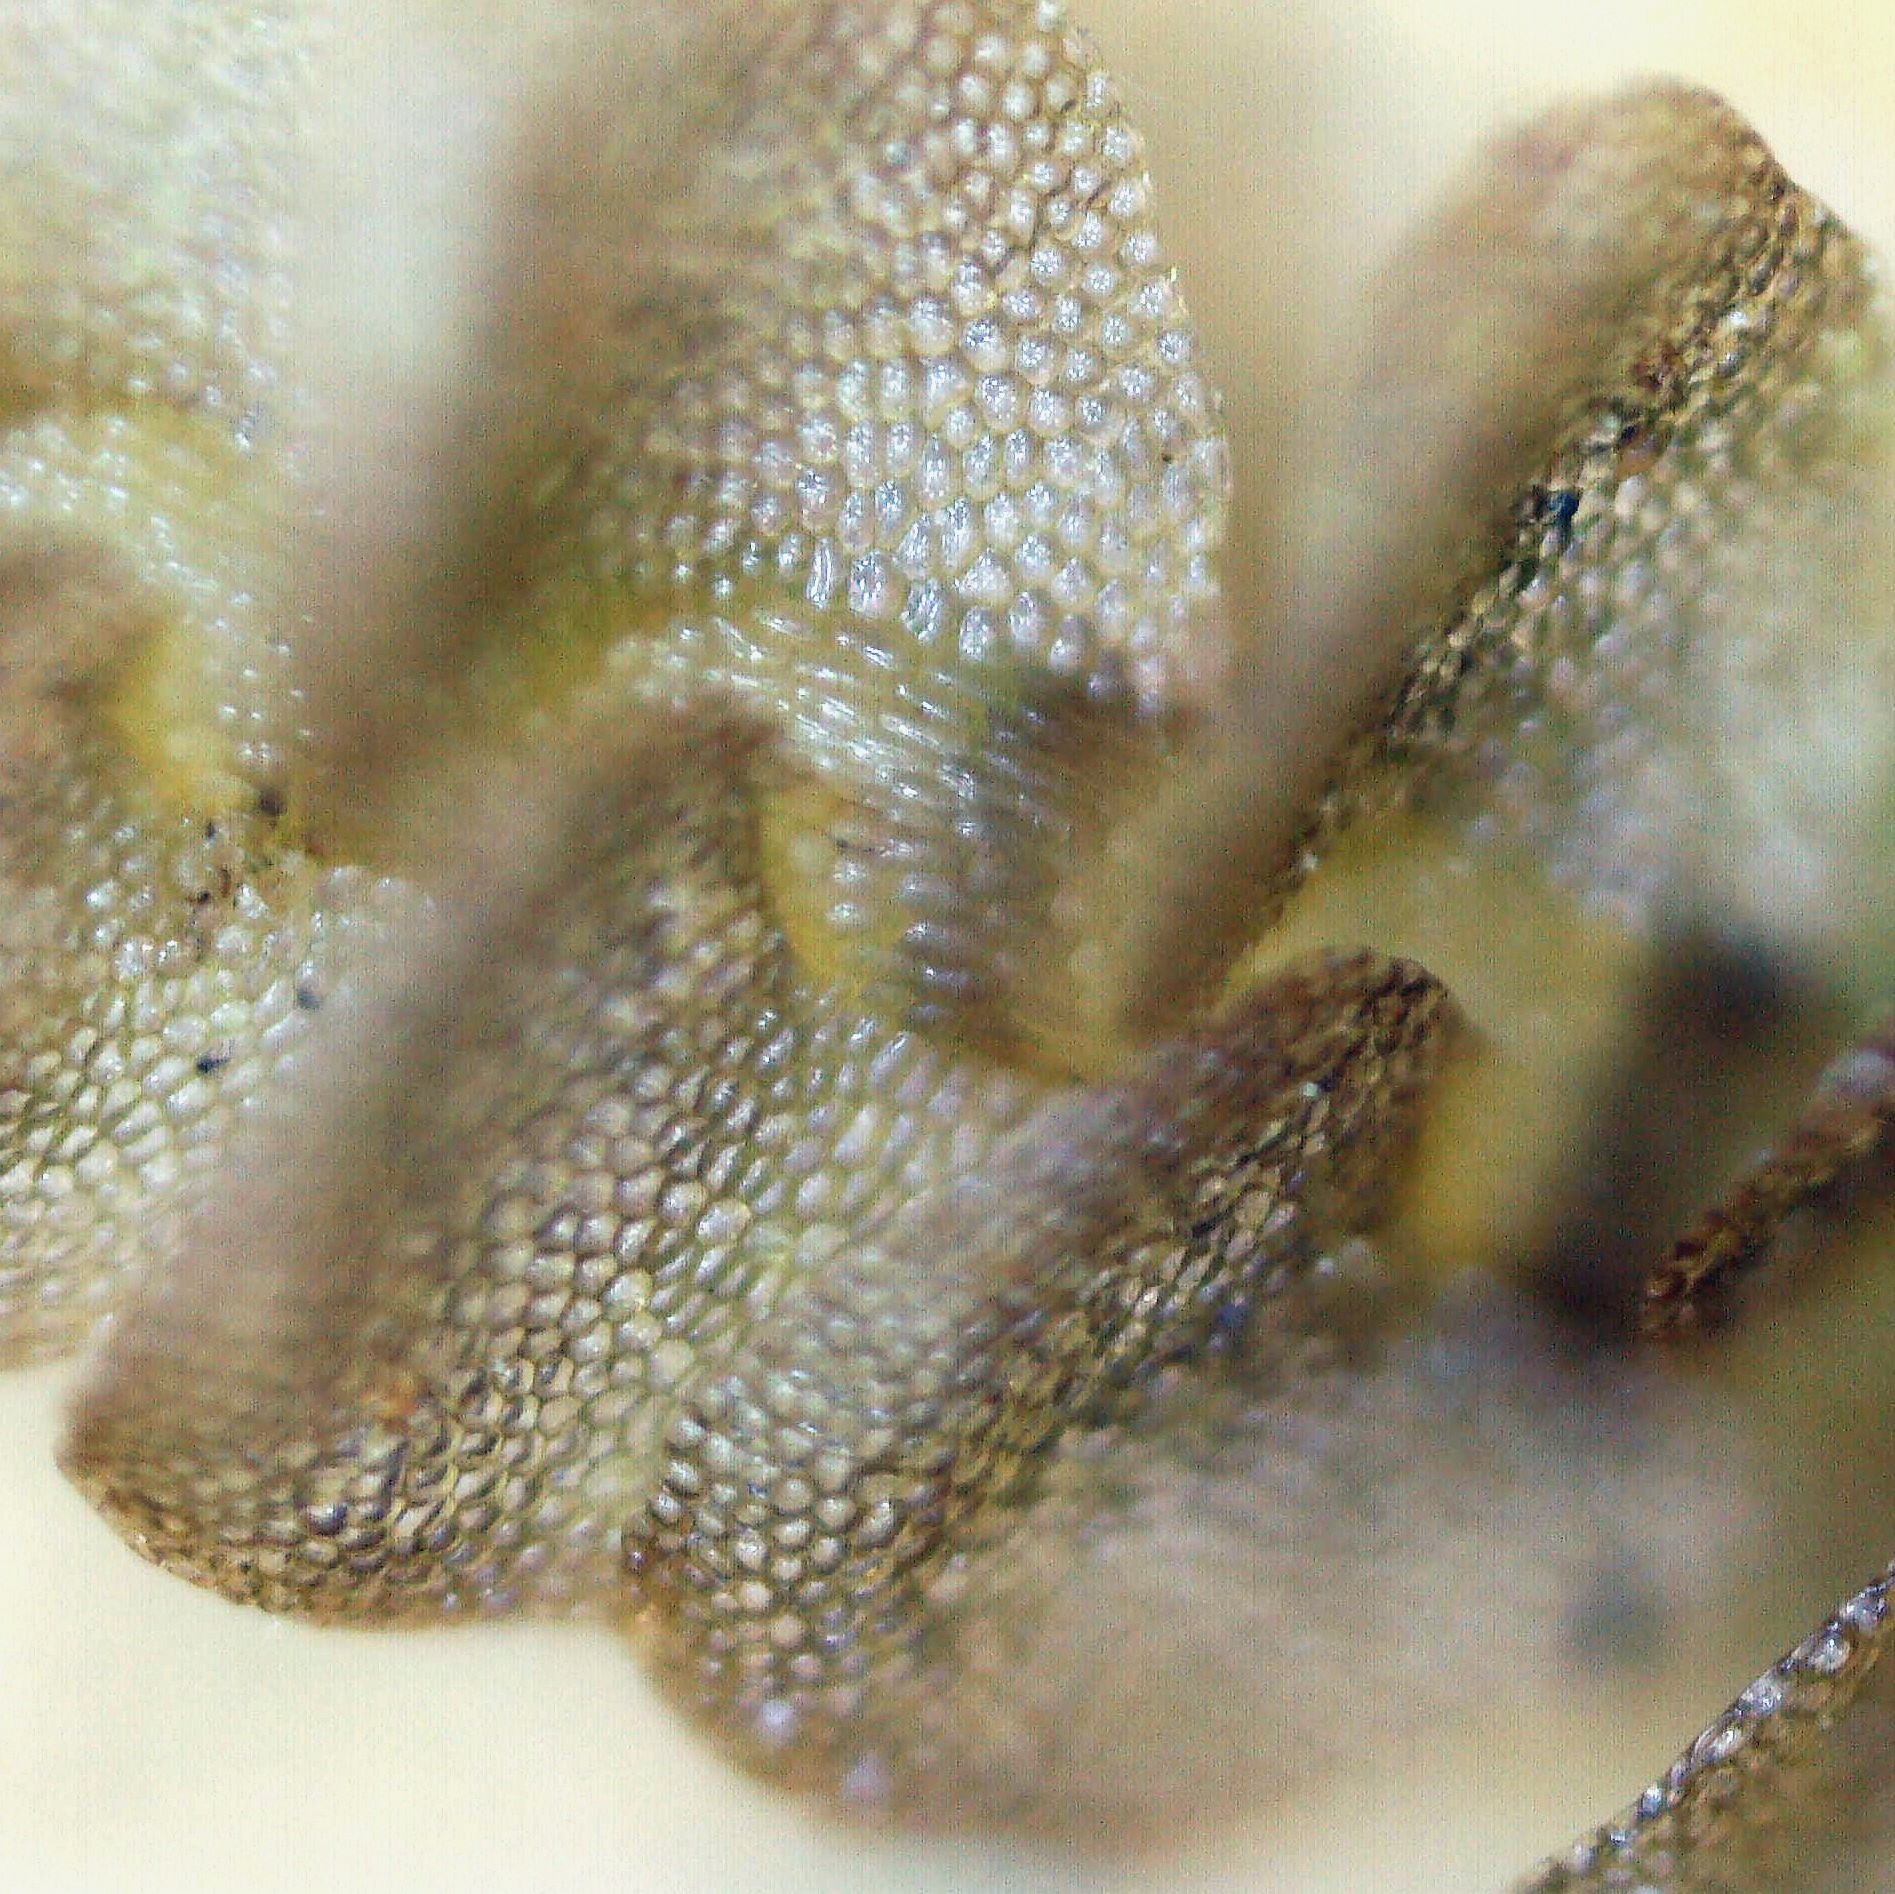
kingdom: Plantae
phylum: Marchantiophyta
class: Jungermanniopsida
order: Jungermanniales
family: Calypogeiaceae
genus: Calypogeia
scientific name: Calypogeia muelleriana
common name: Mueller s pouchwort
